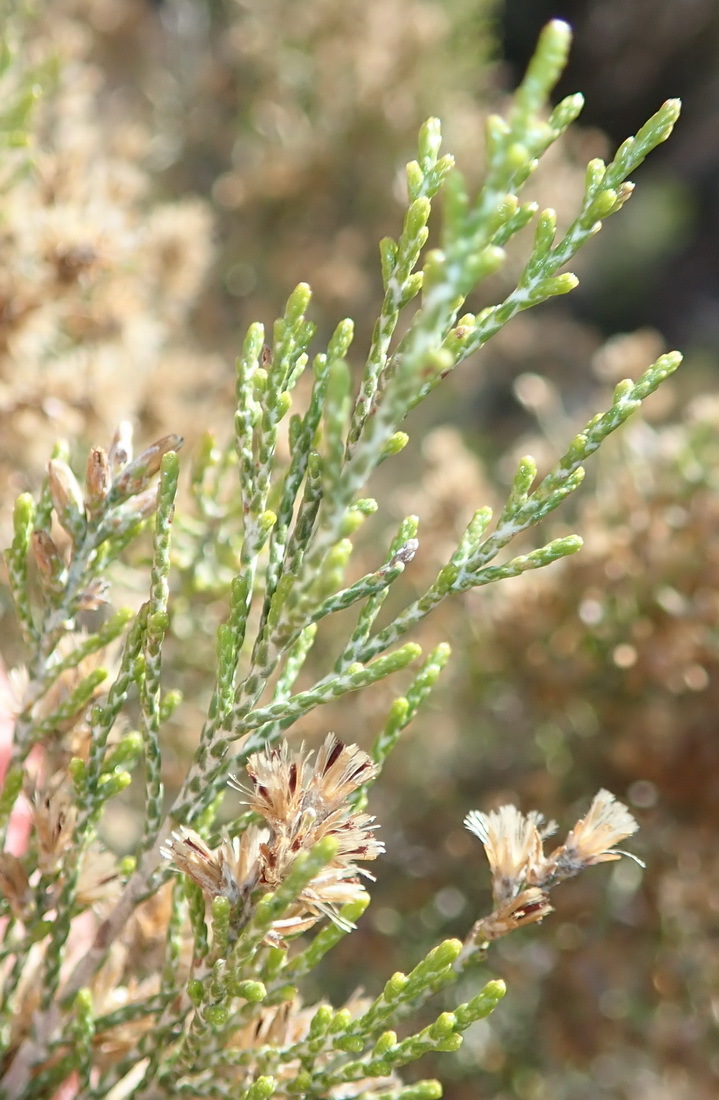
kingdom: Plantae
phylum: Tracheophyta
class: Magnoliopsida
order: Asterales
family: Asteraceae
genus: Dicerothamnus
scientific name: Dicerothamnus rhinocerotis
